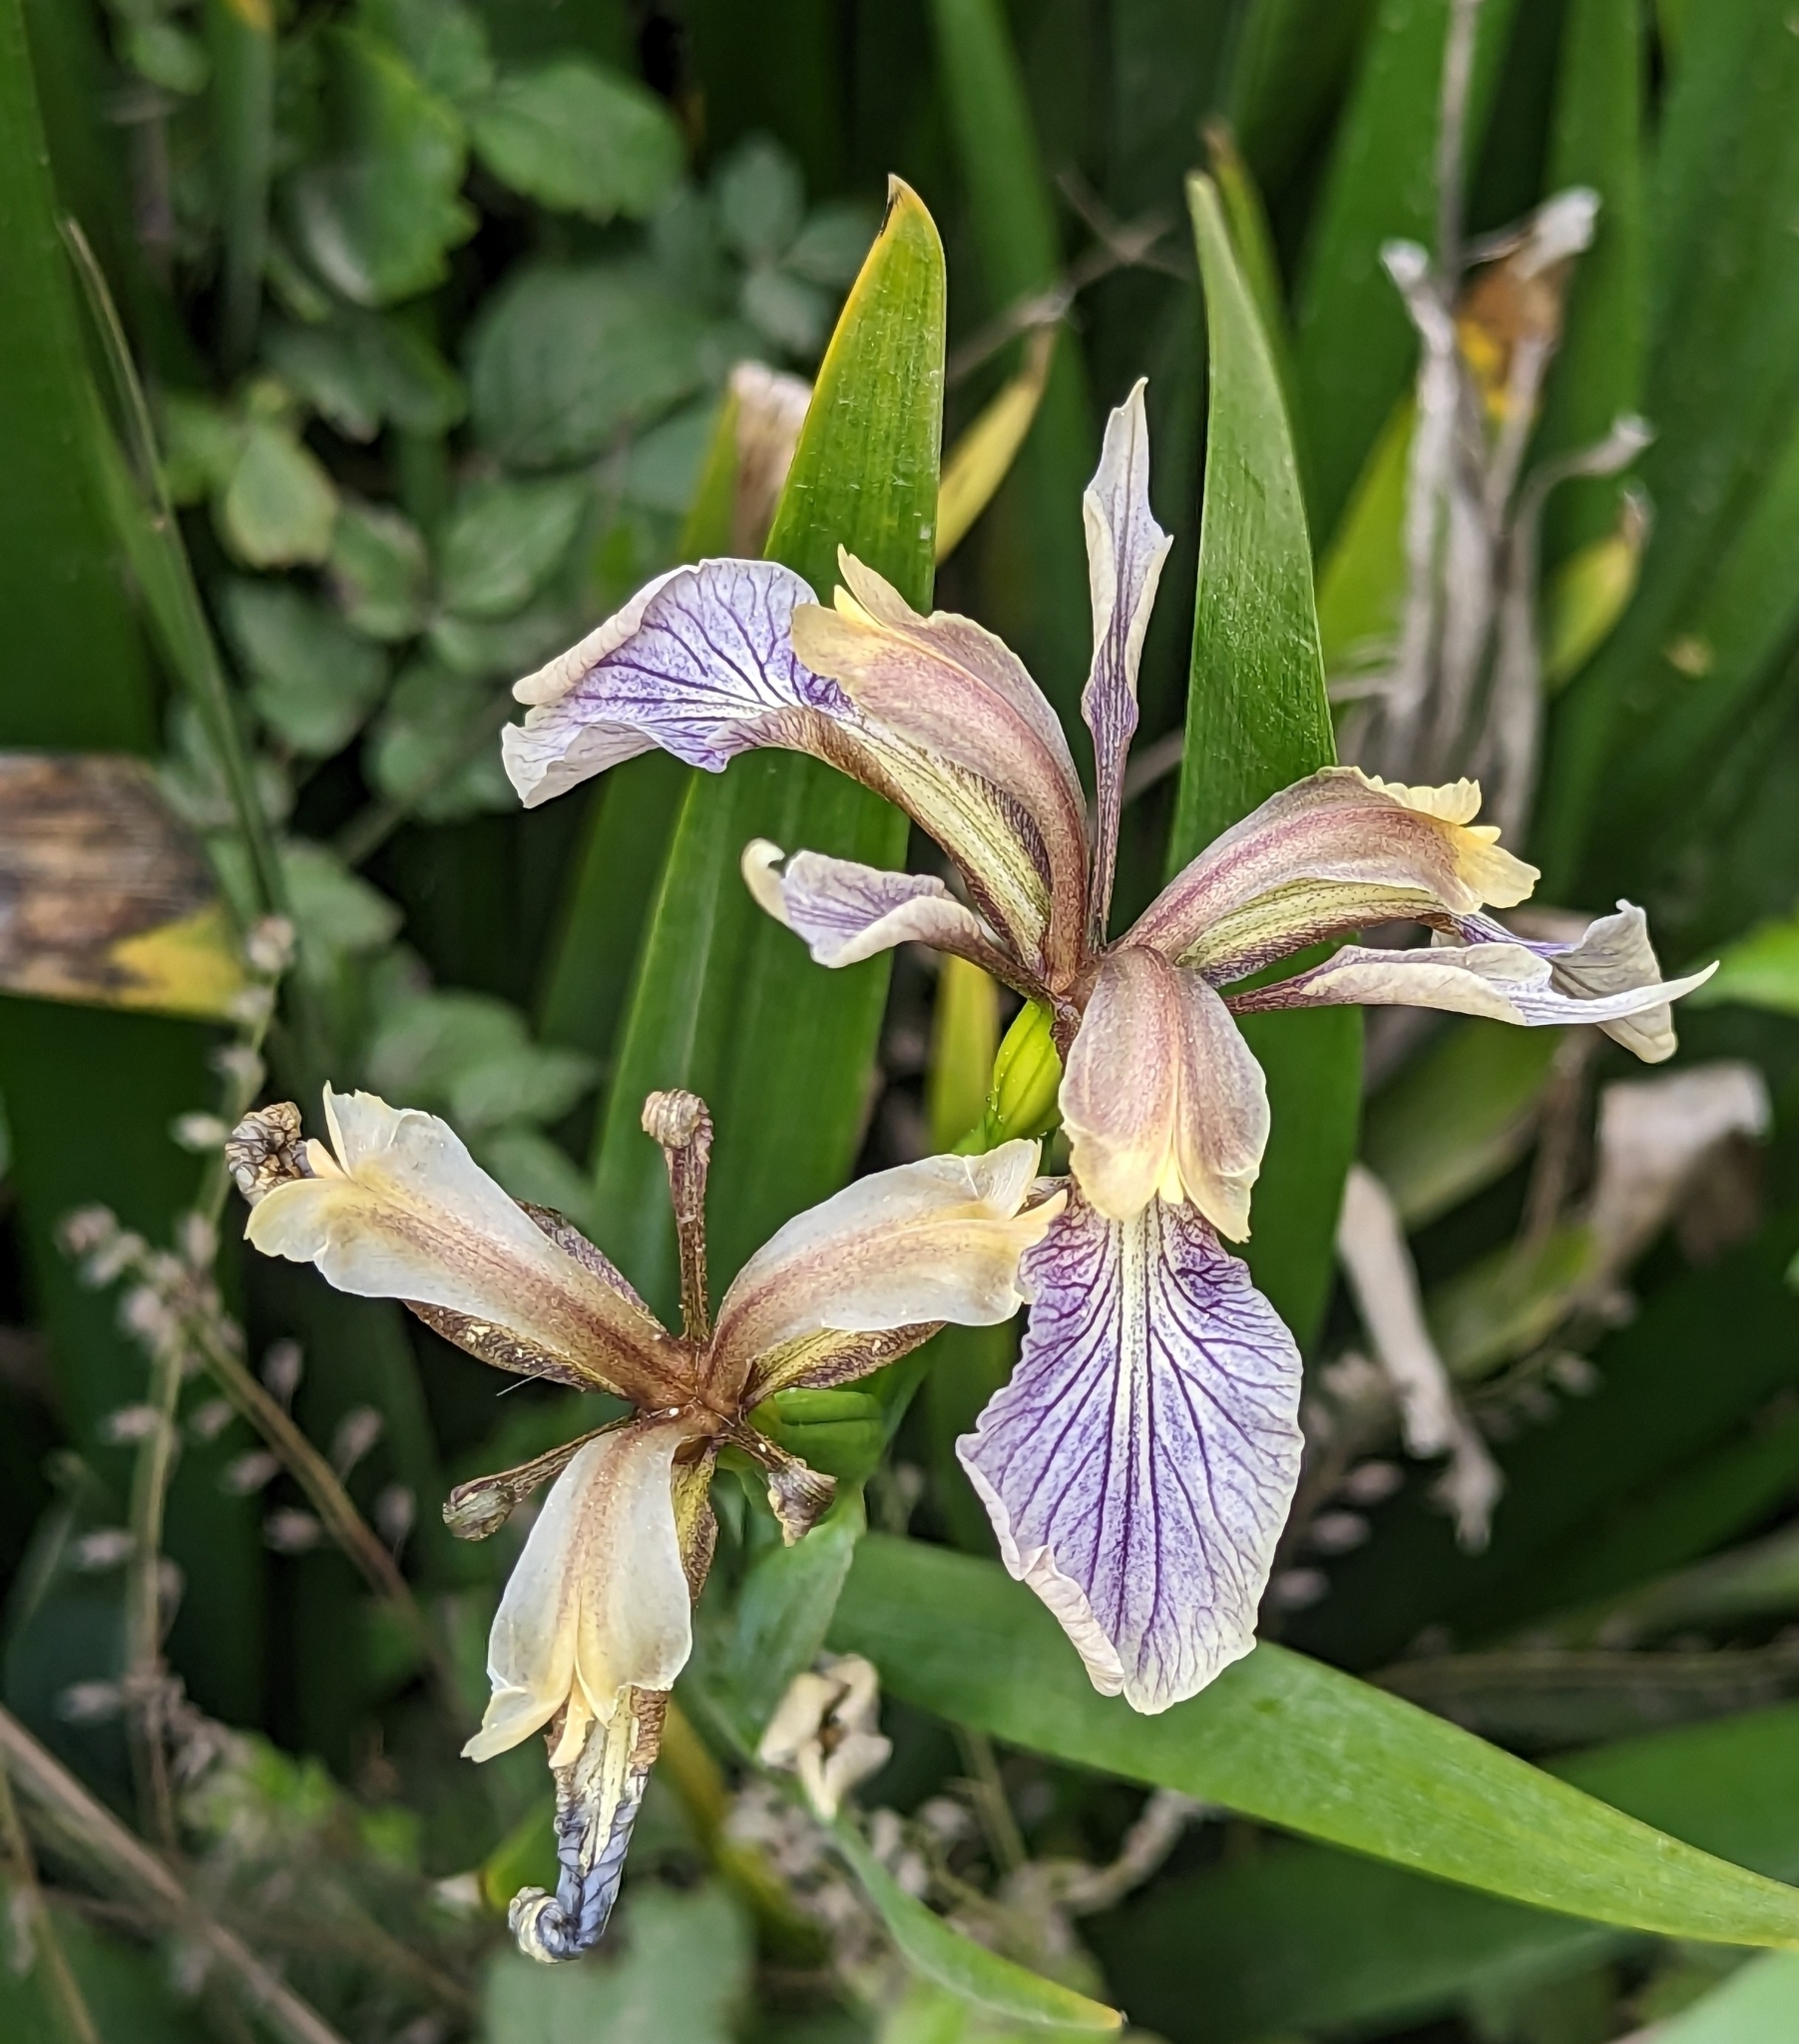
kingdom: Plantae
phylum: Tracheophyta
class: Liliopsida
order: Asparagales
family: Iridaceae
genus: Iris
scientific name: Iris foetidissima
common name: Stinking iris
